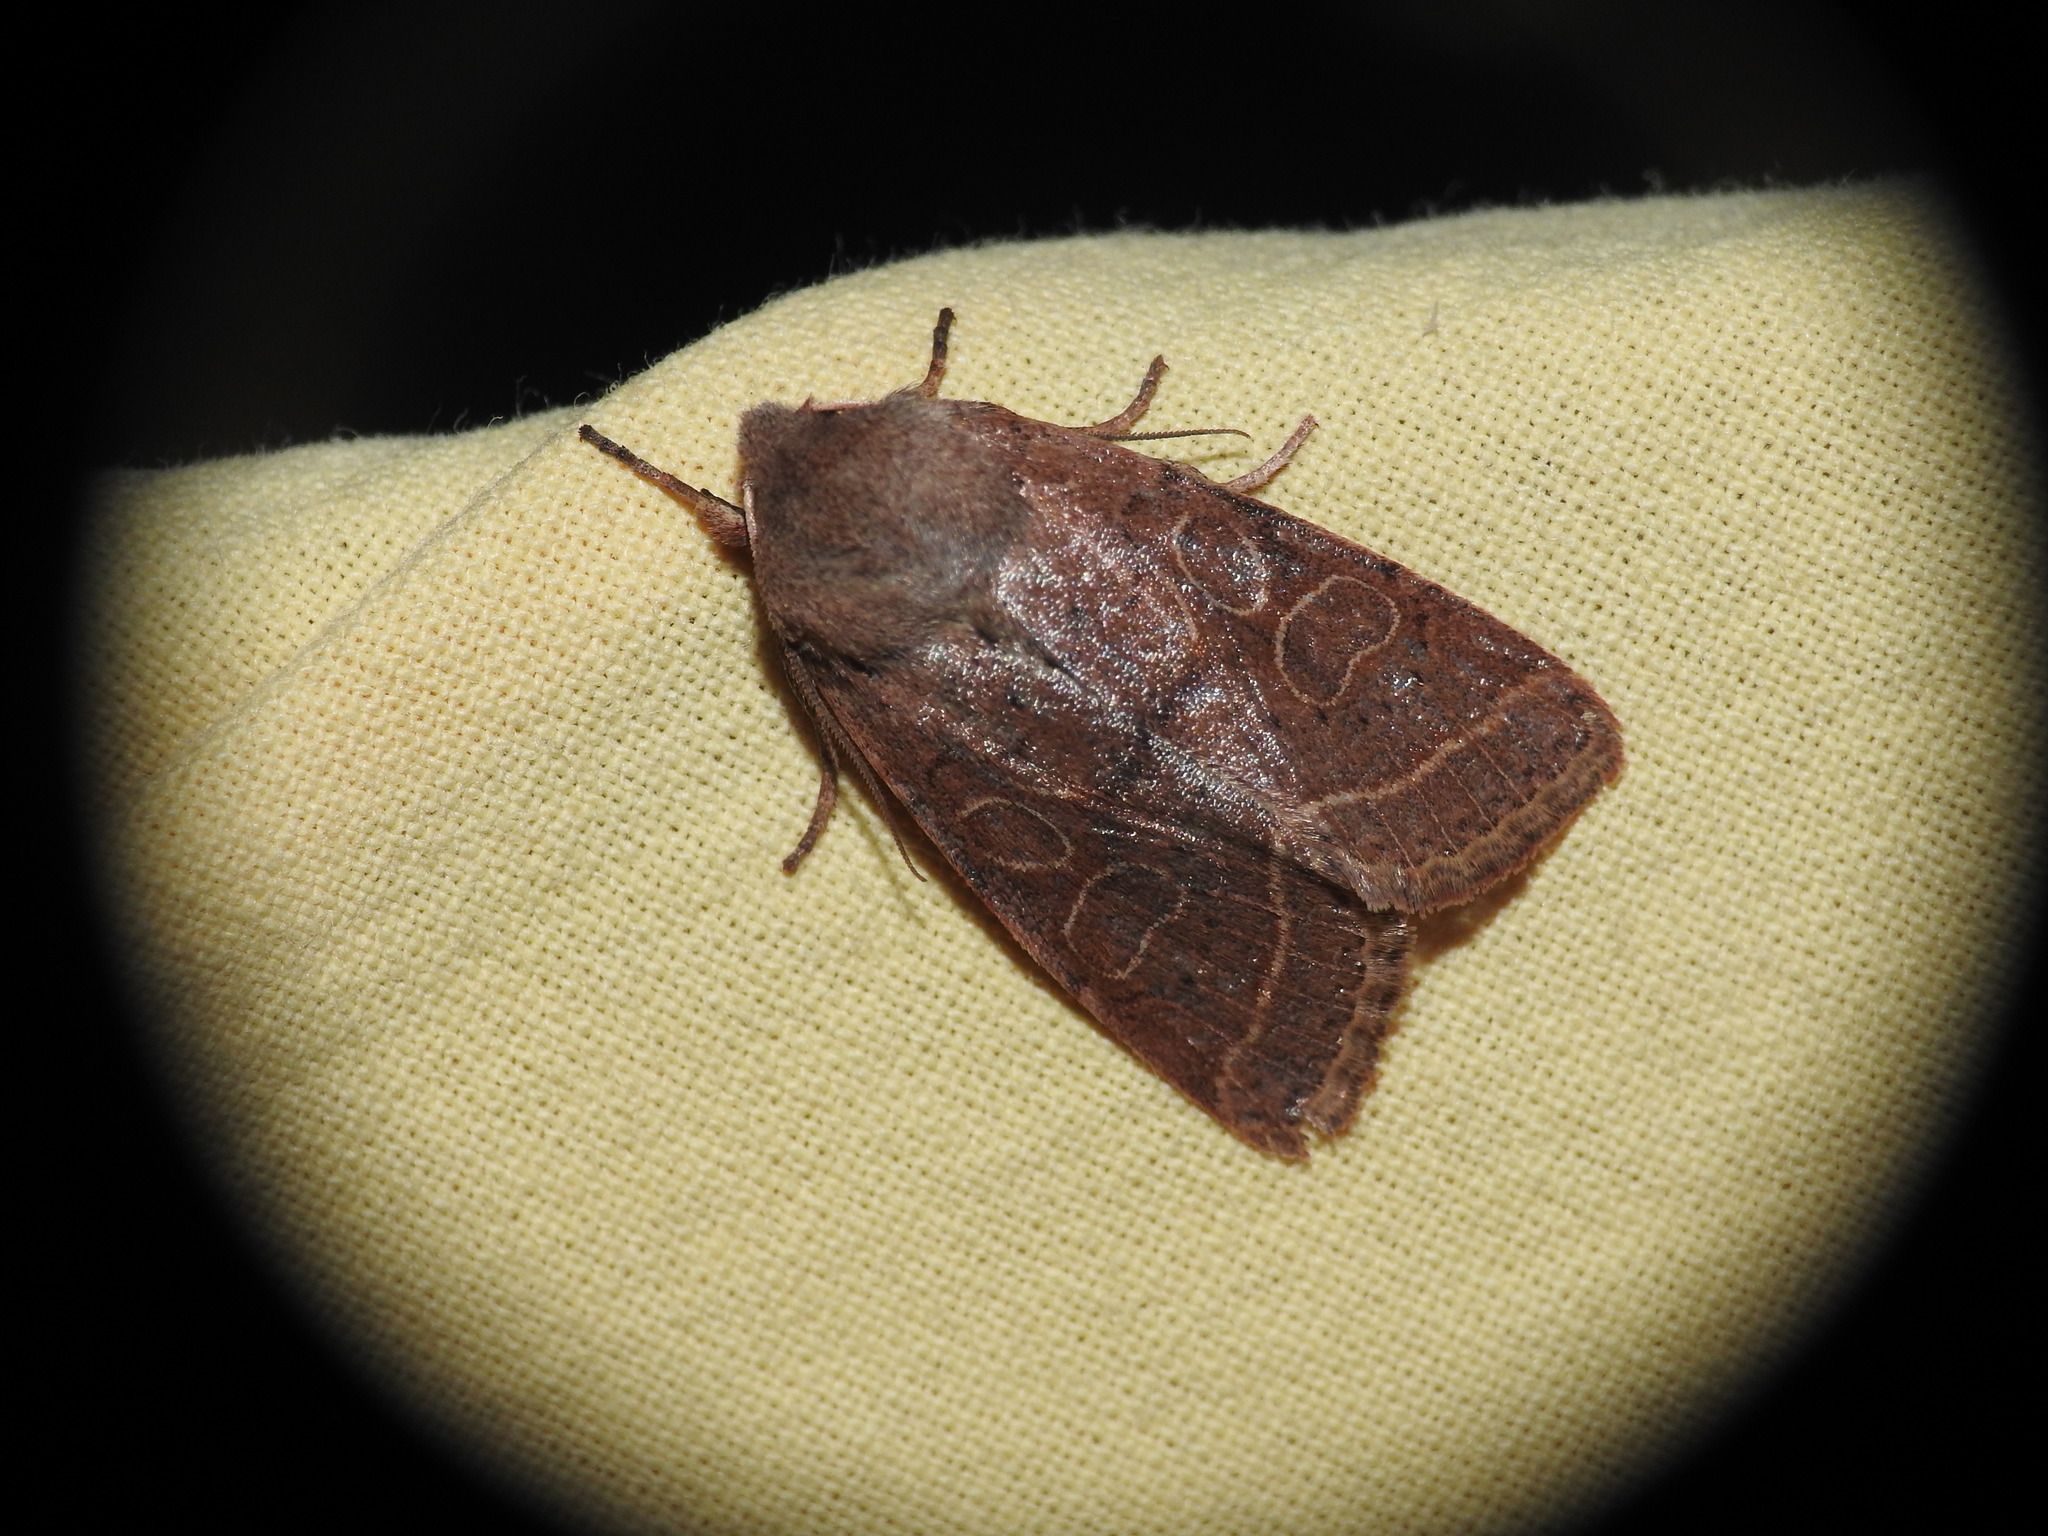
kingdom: Animalia
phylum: Arthropoda
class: Insecta
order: Lepidoptera
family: Noctuidae
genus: Orthosia
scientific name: Orthosia cerasi
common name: Common quaker
